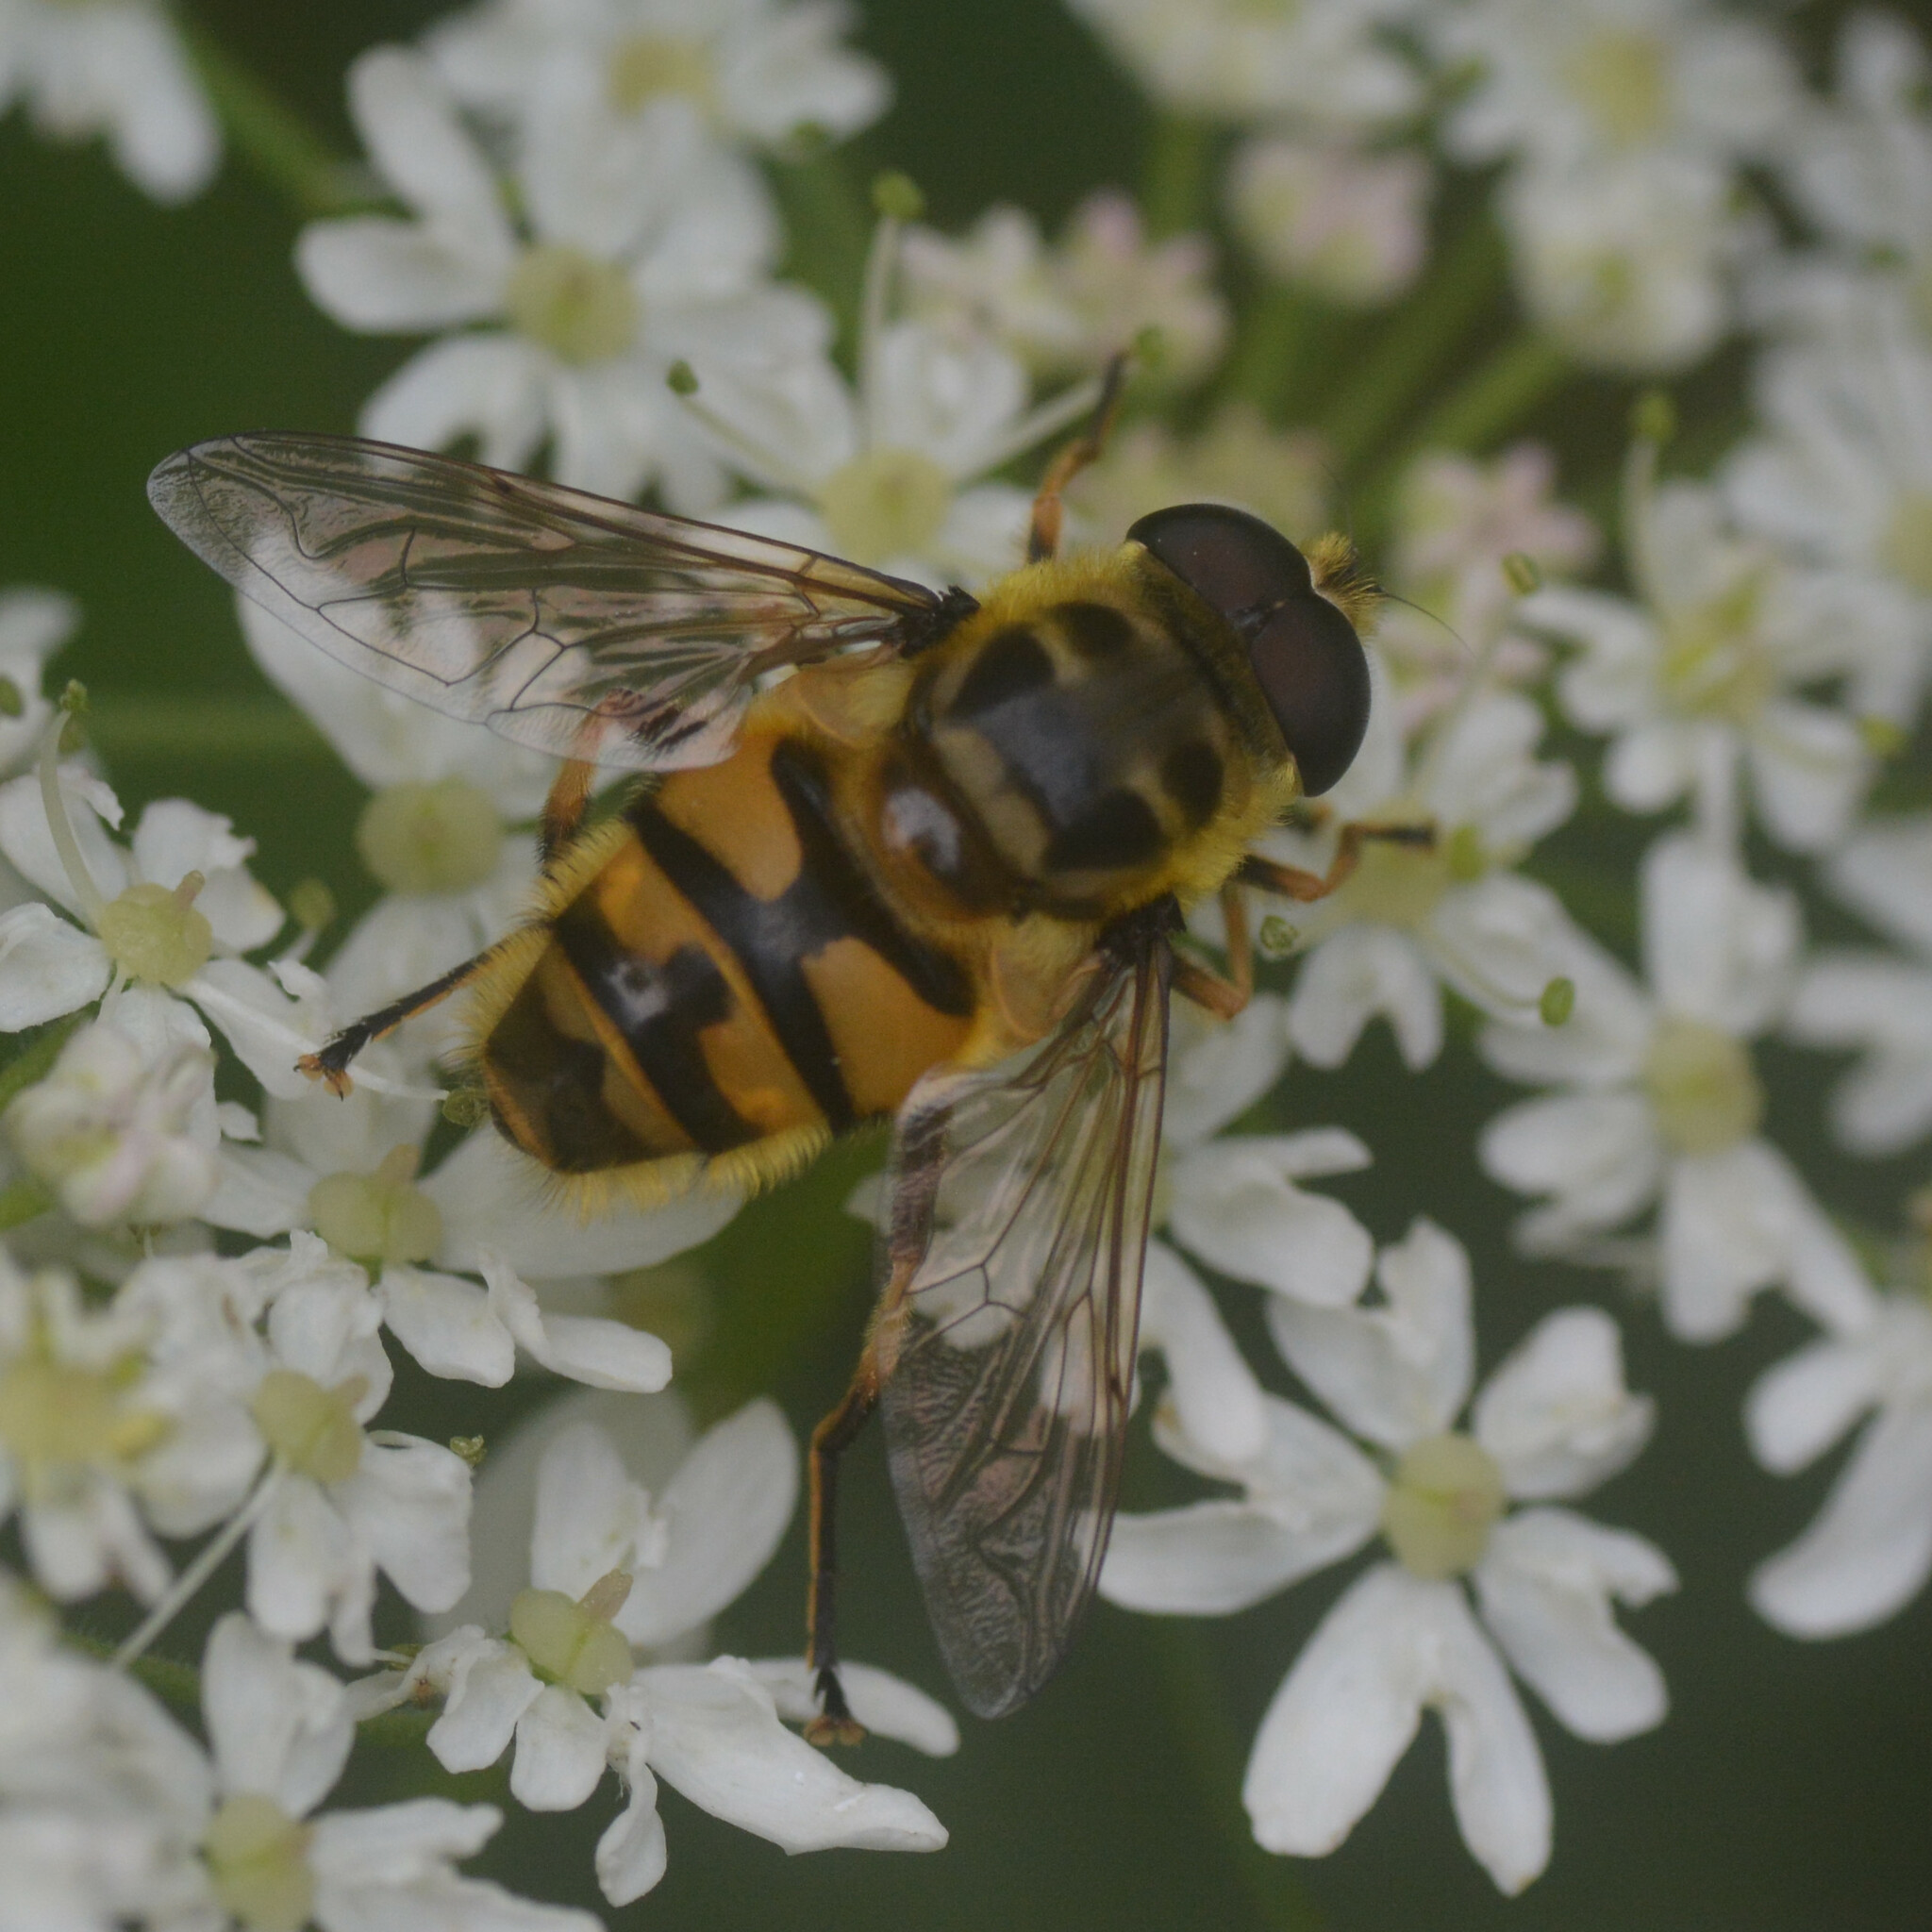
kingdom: Animalia
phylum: Arthropoda
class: Insecta
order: Diptera
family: Syrphidae
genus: Myathropa
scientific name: Myathropa florea
